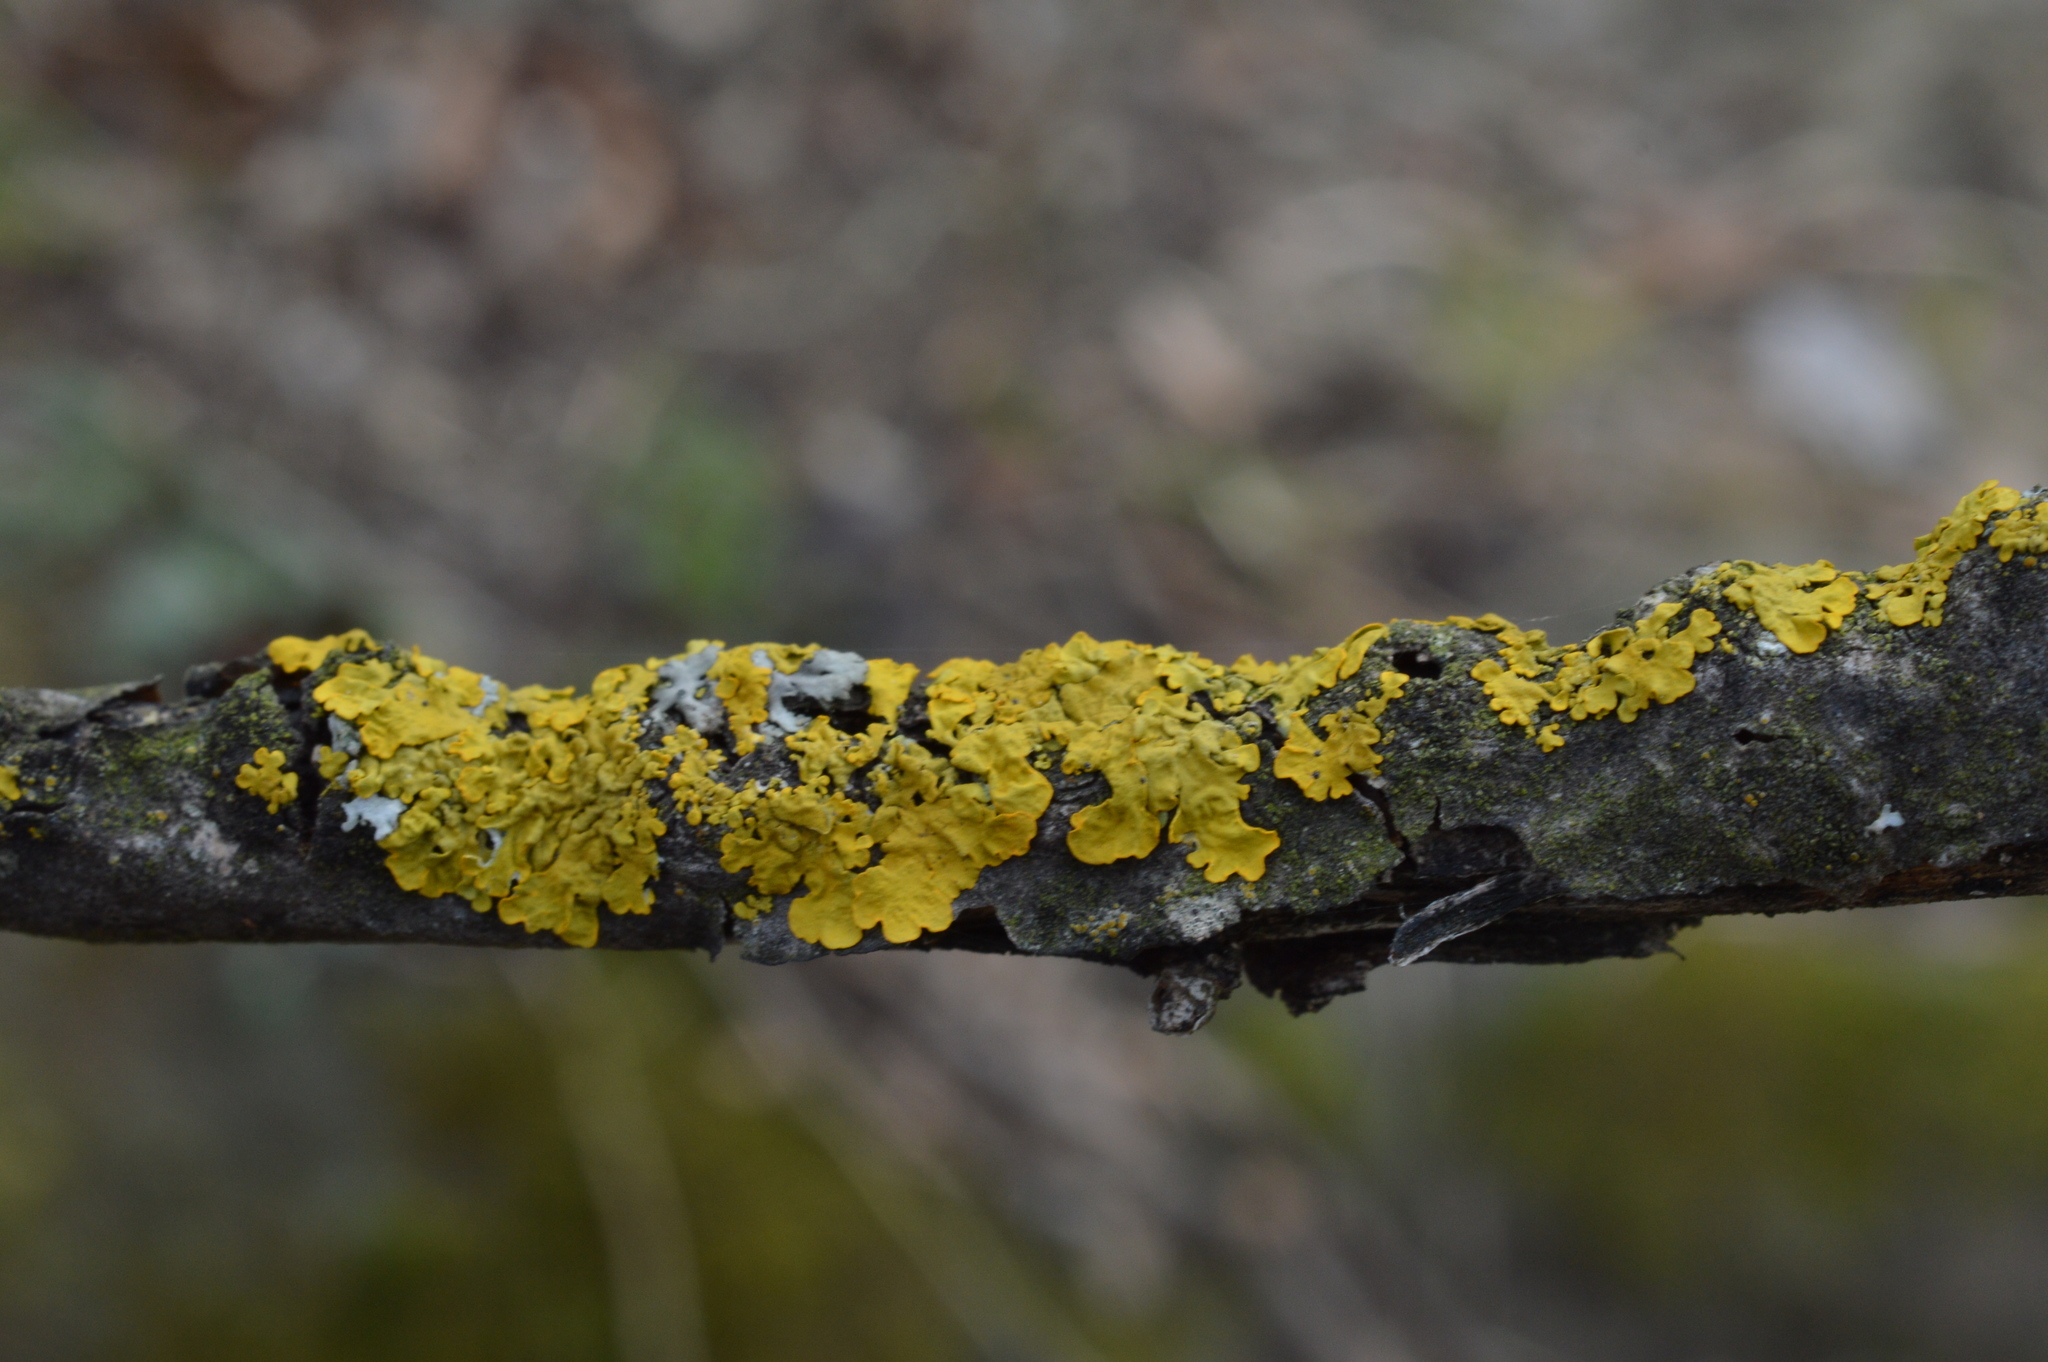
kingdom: Fungi
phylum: Ascomycota
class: Lecanoromycetes
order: Teloschistales
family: Teloschistaceae
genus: Xanthoria
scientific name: Xanthoria parietina
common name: Common orange lichen
